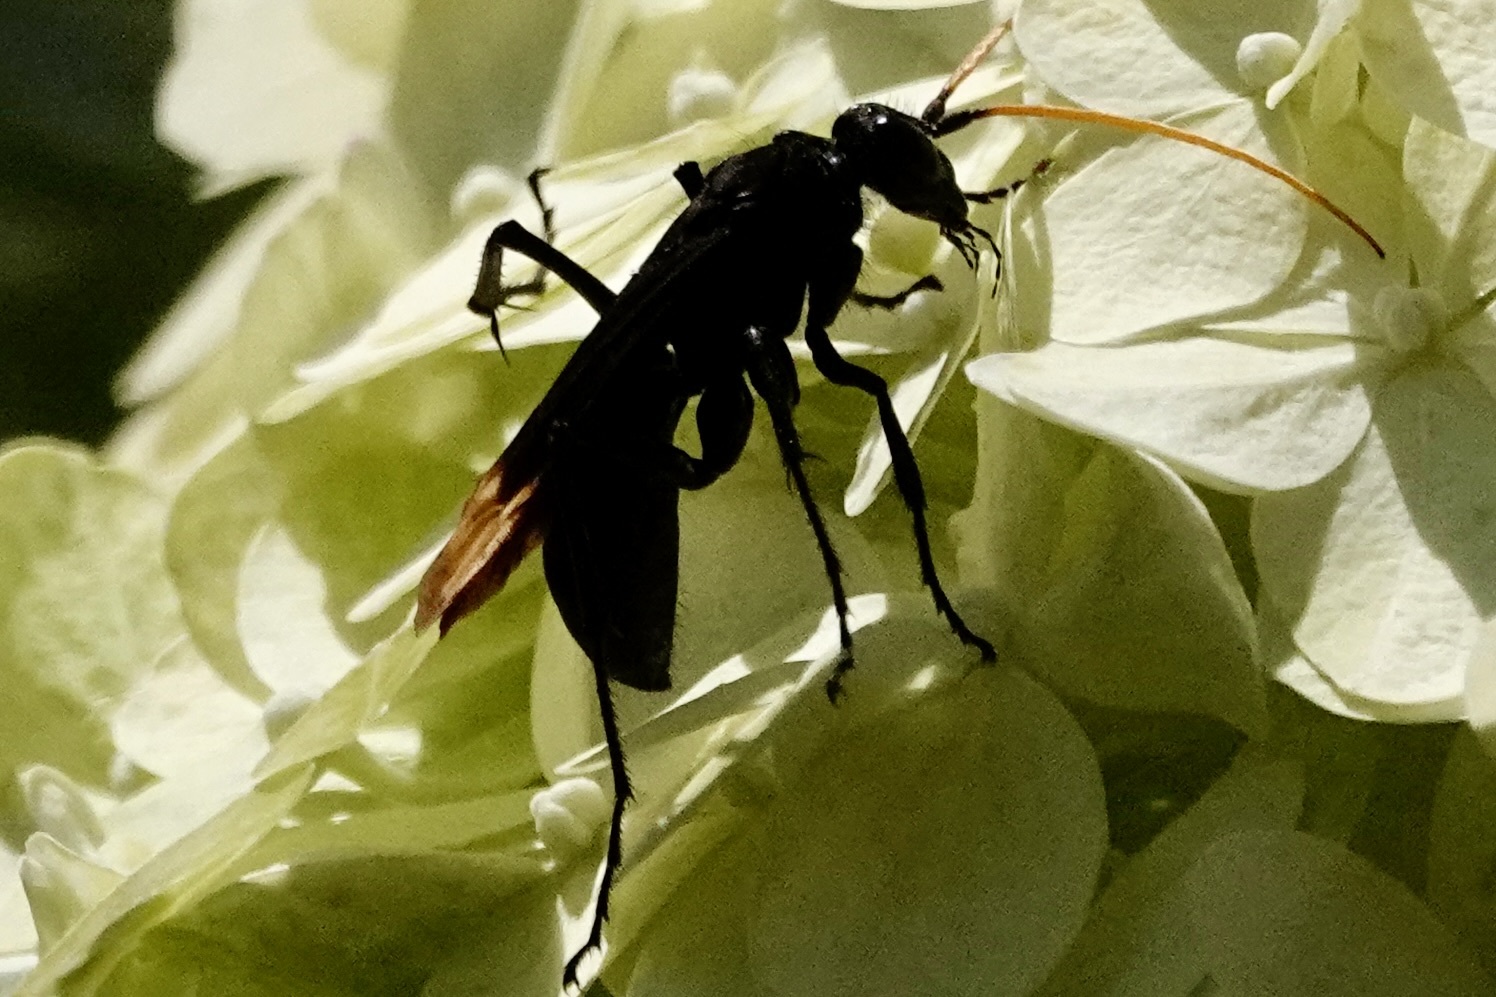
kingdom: Animalia
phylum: Arthropoda
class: Insecta
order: Hymenoptera
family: Pompilidae
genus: Entypus
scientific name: Entypus unifasciatus
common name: Eastern tawny-horned spider wasp
